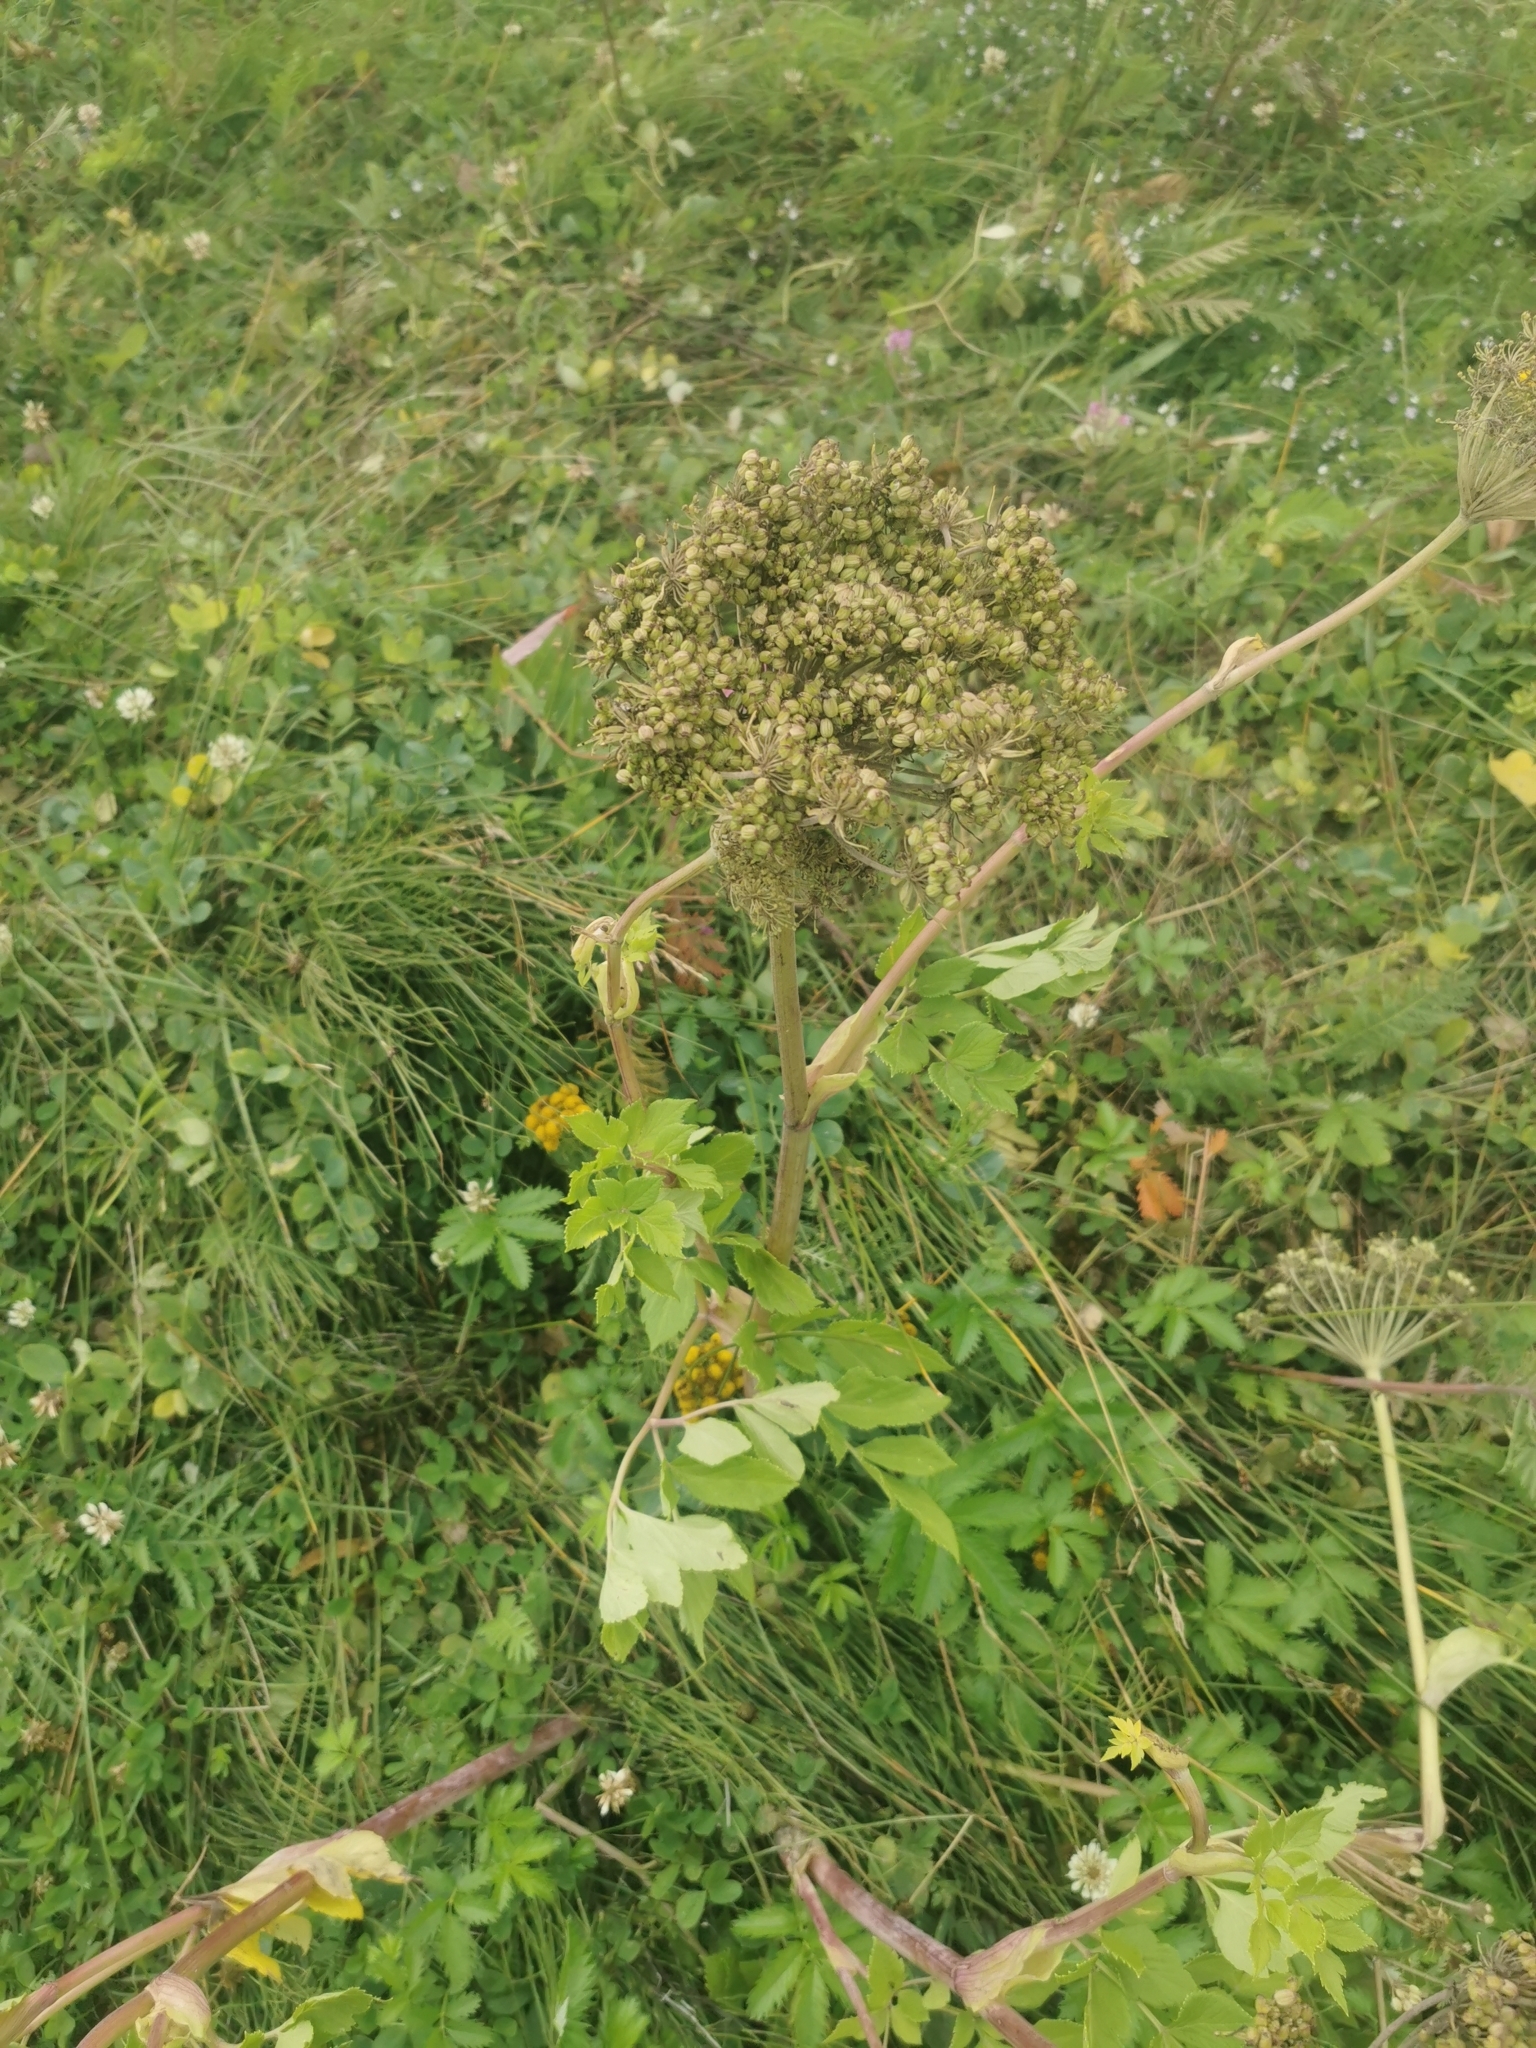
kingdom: Plantae
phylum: Tracheophyta
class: Magnoliopsida
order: Apiales
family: Apiaceae
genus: Angelica
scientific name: Angelica gmelinii
